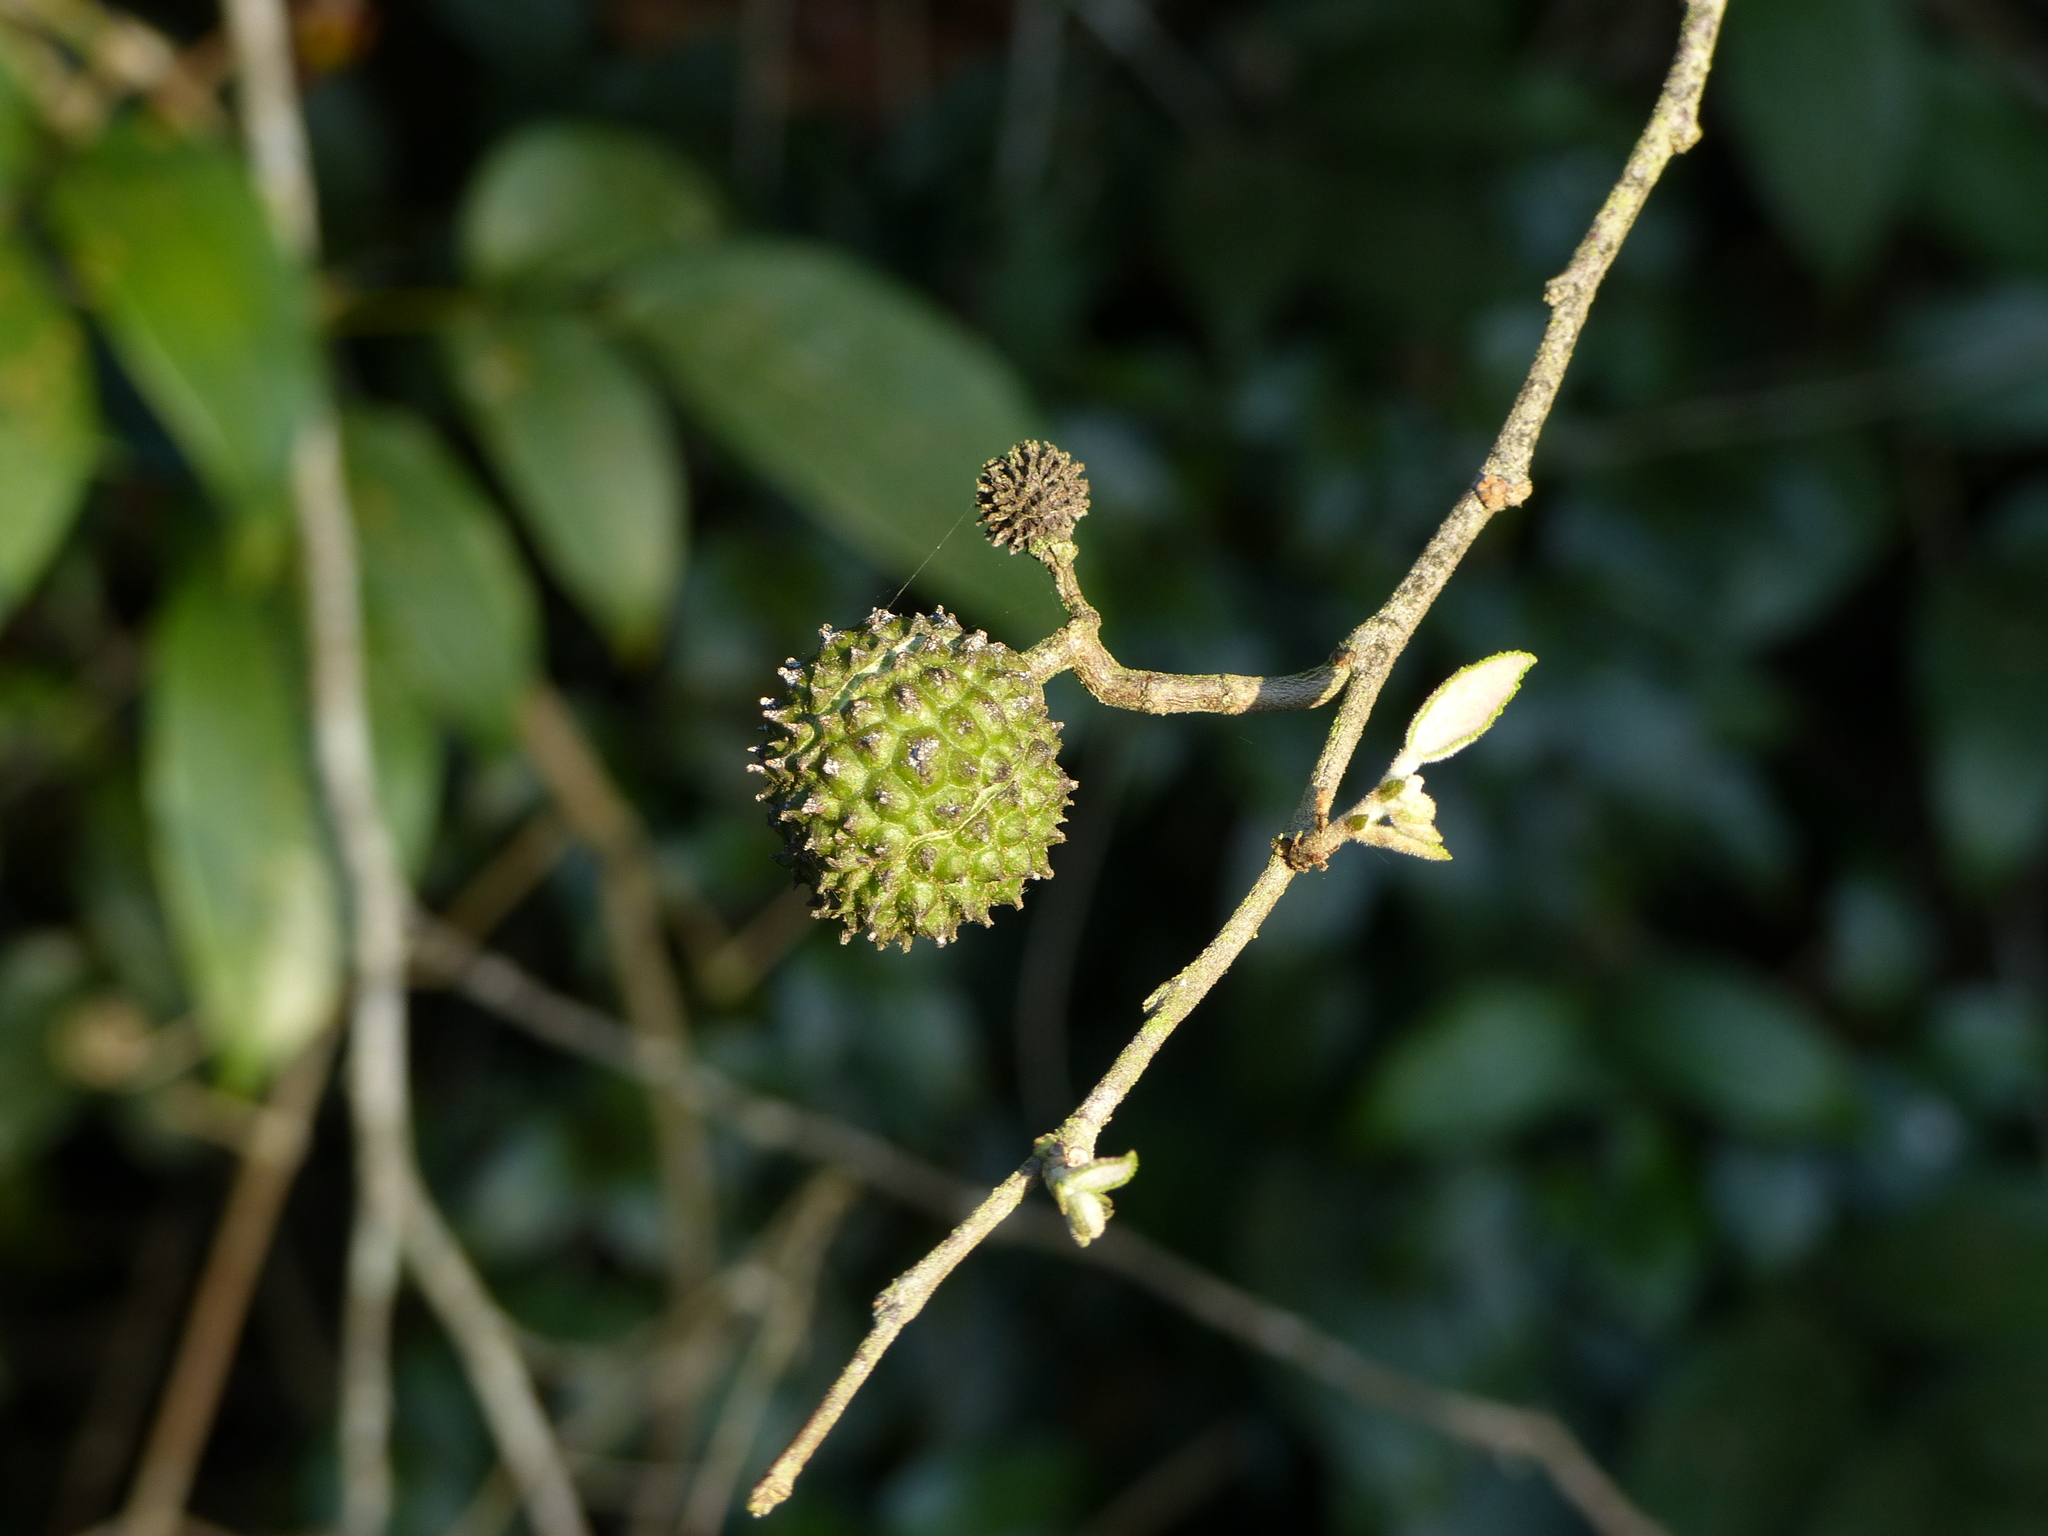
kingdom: Plantae
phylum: Tracheophyta
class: Magnoliopsida
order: Malvales
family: Malvaceae
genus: Guazuma
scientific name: Guazuma ulmifolia
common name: Bastard-cedar
